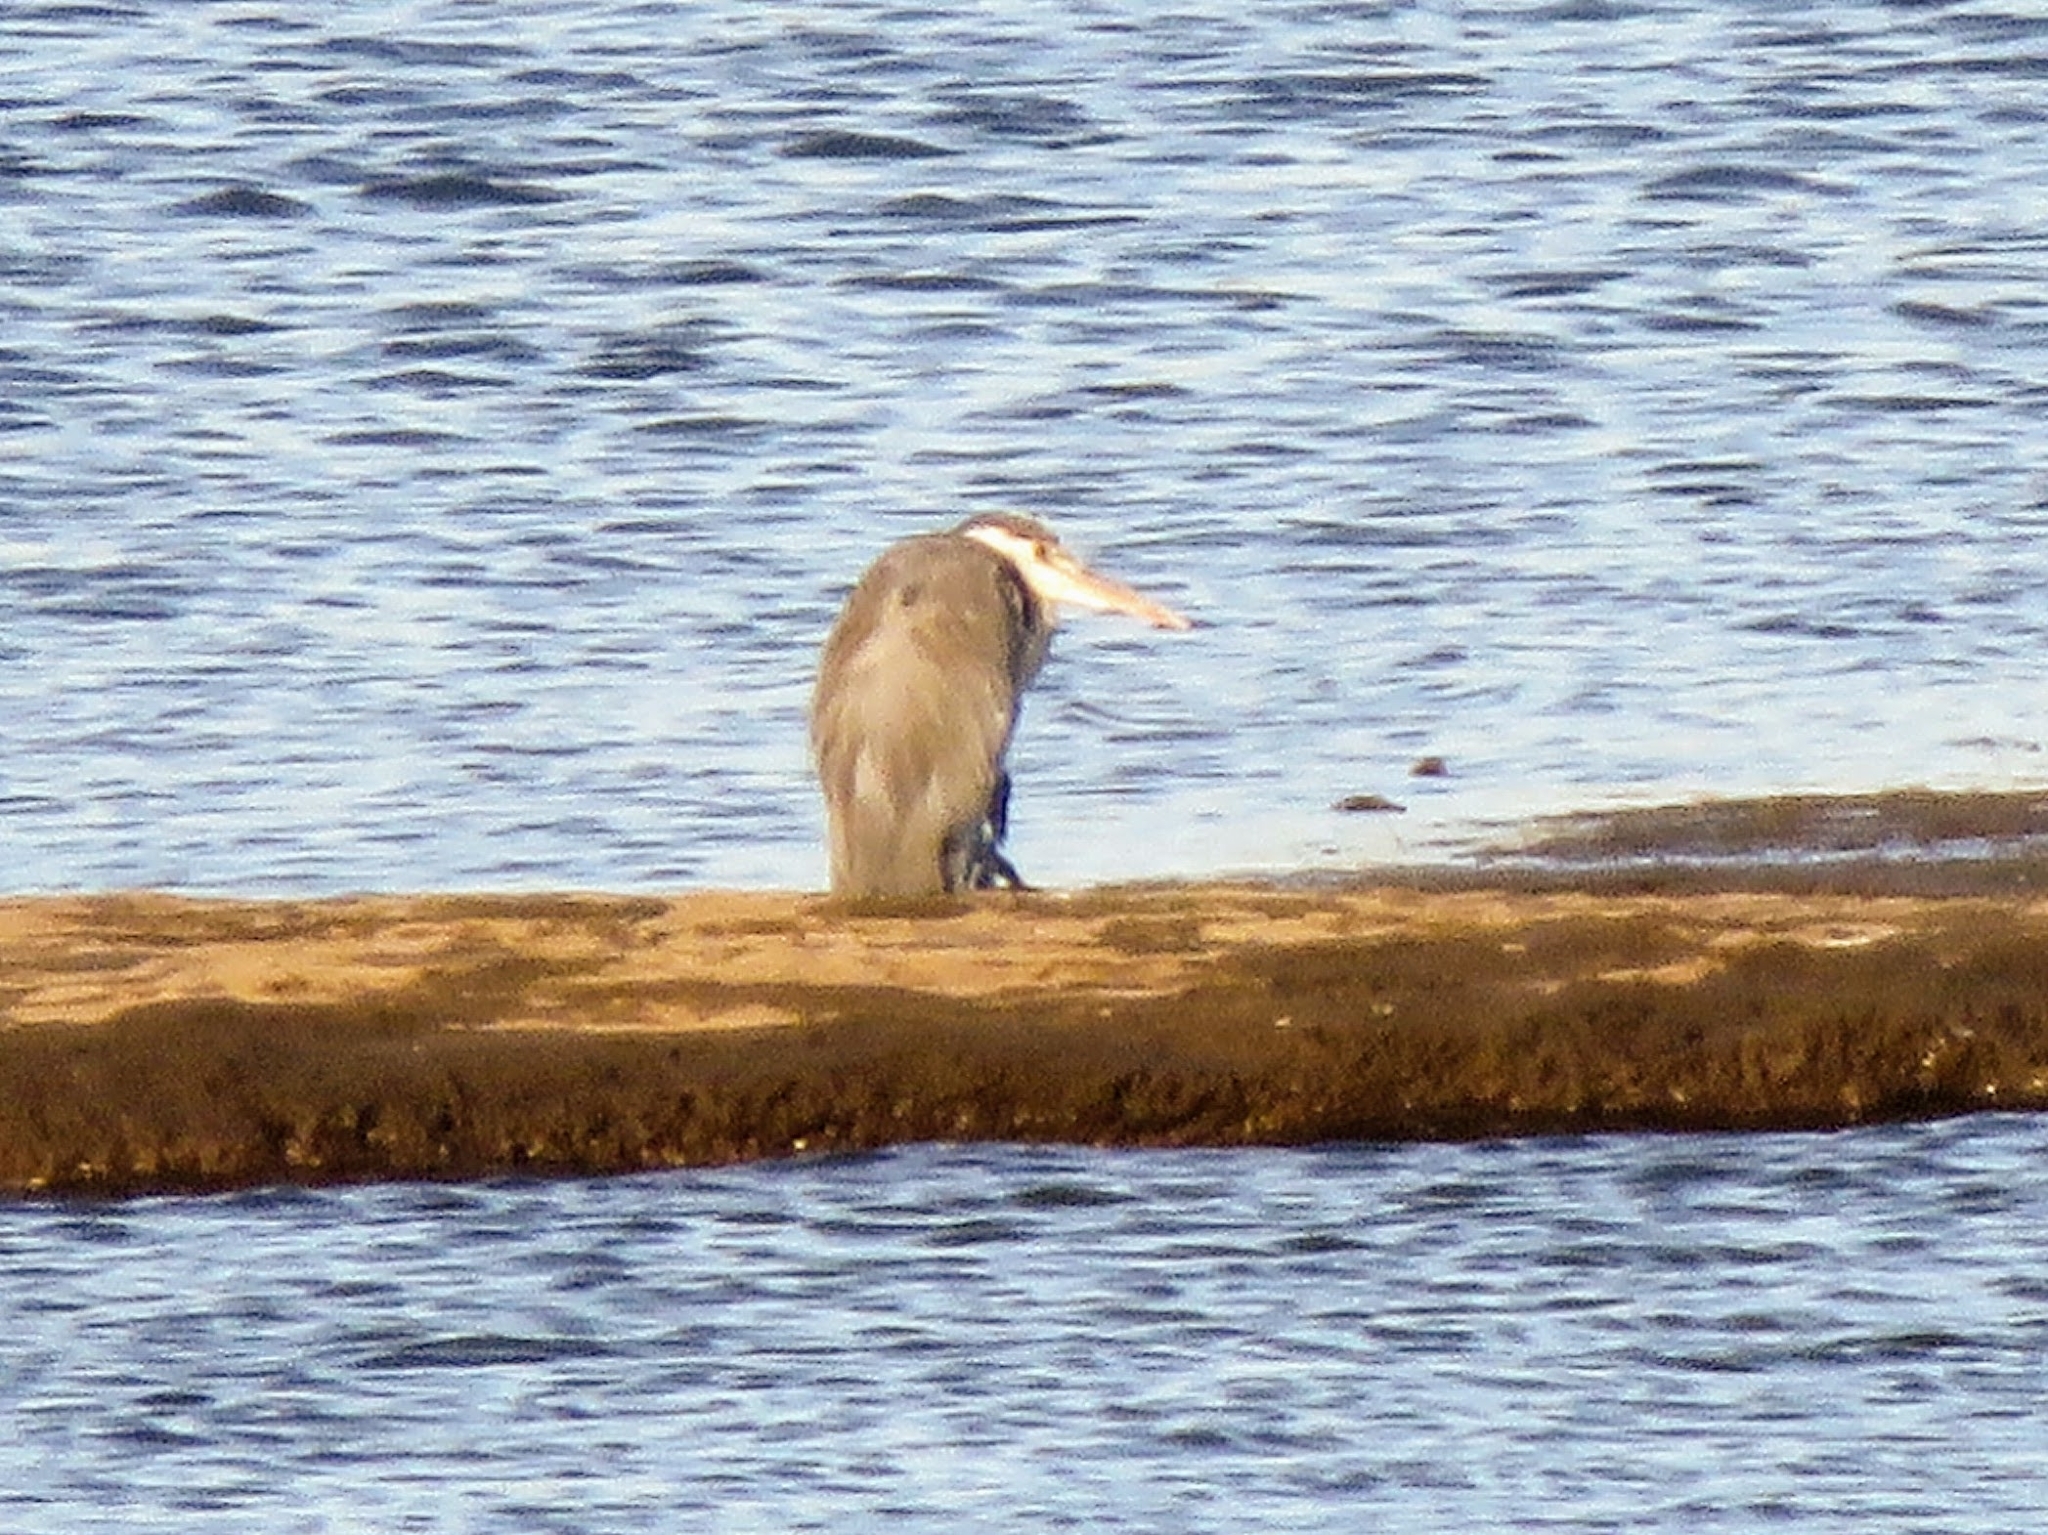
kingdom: Animalia
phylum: Chordata
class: Aves
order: Pelecaniformes
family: Ardeidae
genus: Ardea
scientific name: Ardea cinerea
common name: Grey heron
